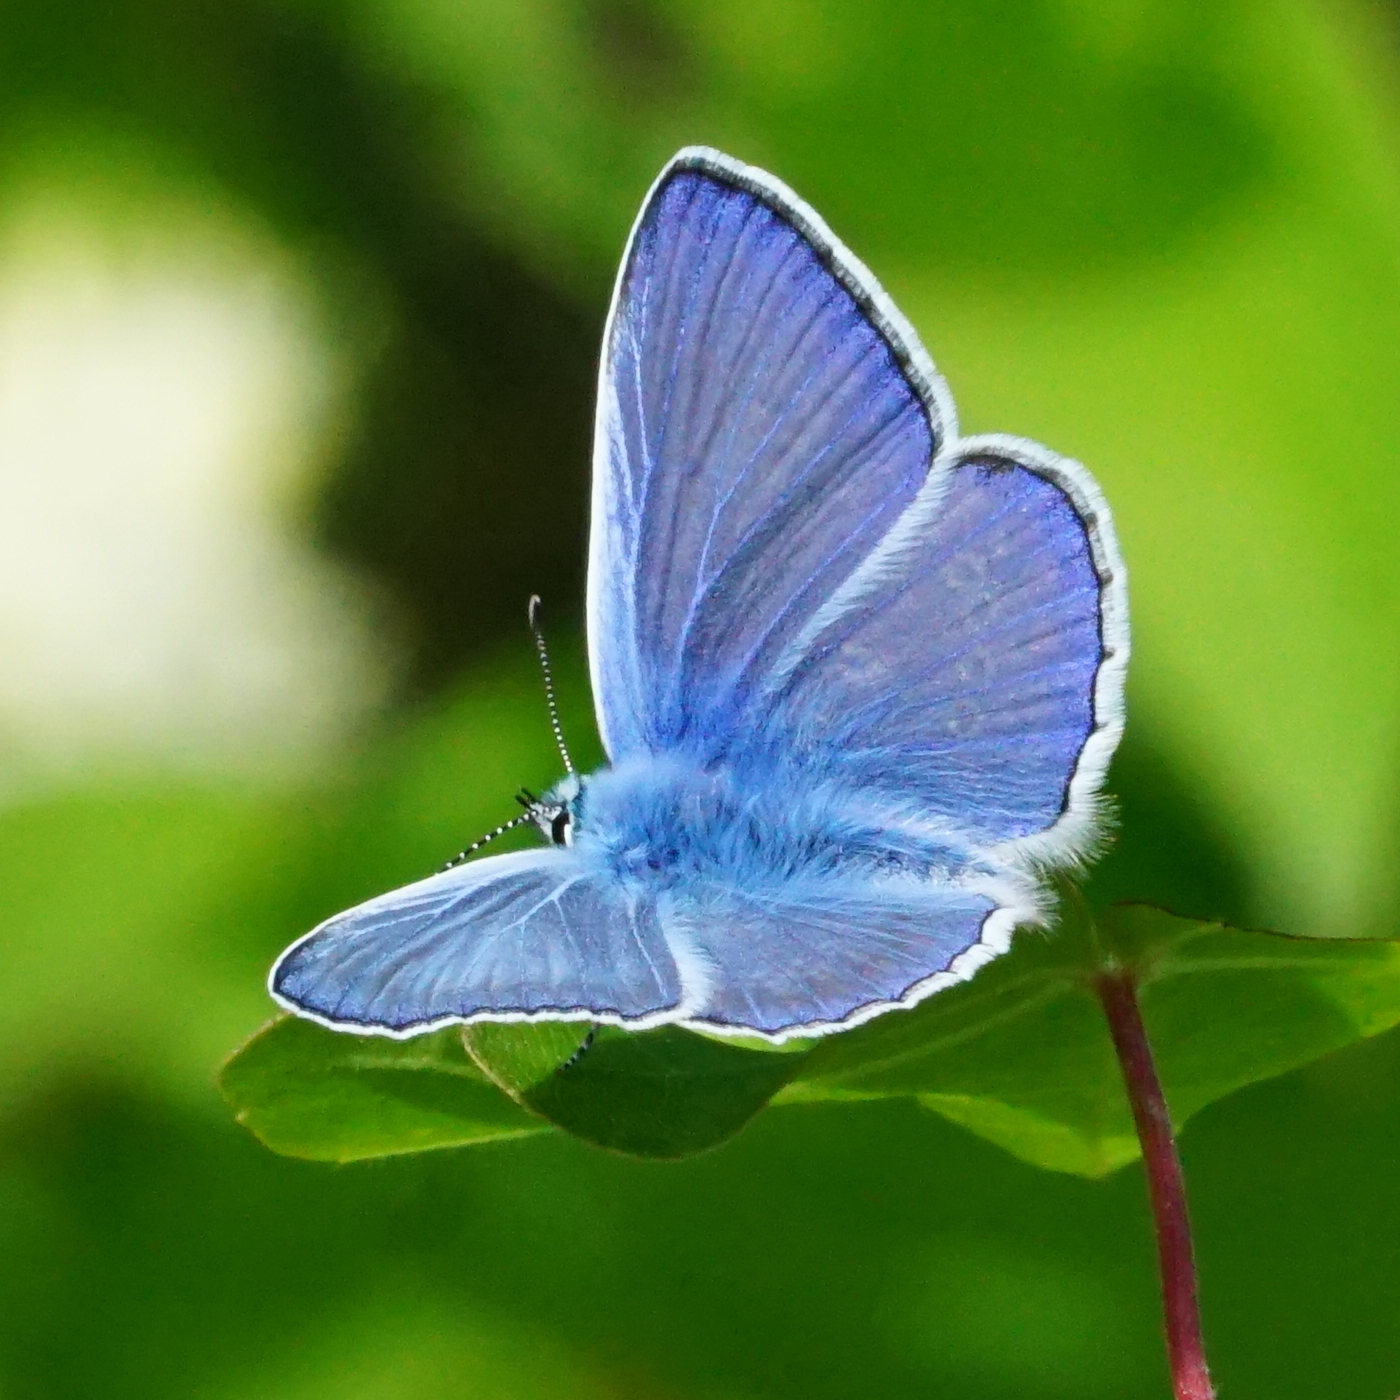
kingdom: Animalia
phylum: Arthropoda
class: Insecta
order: Lepidoptera
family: Lycaenidae
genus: Polyommatus
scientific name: Polyommatus icarus
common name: Common blue
